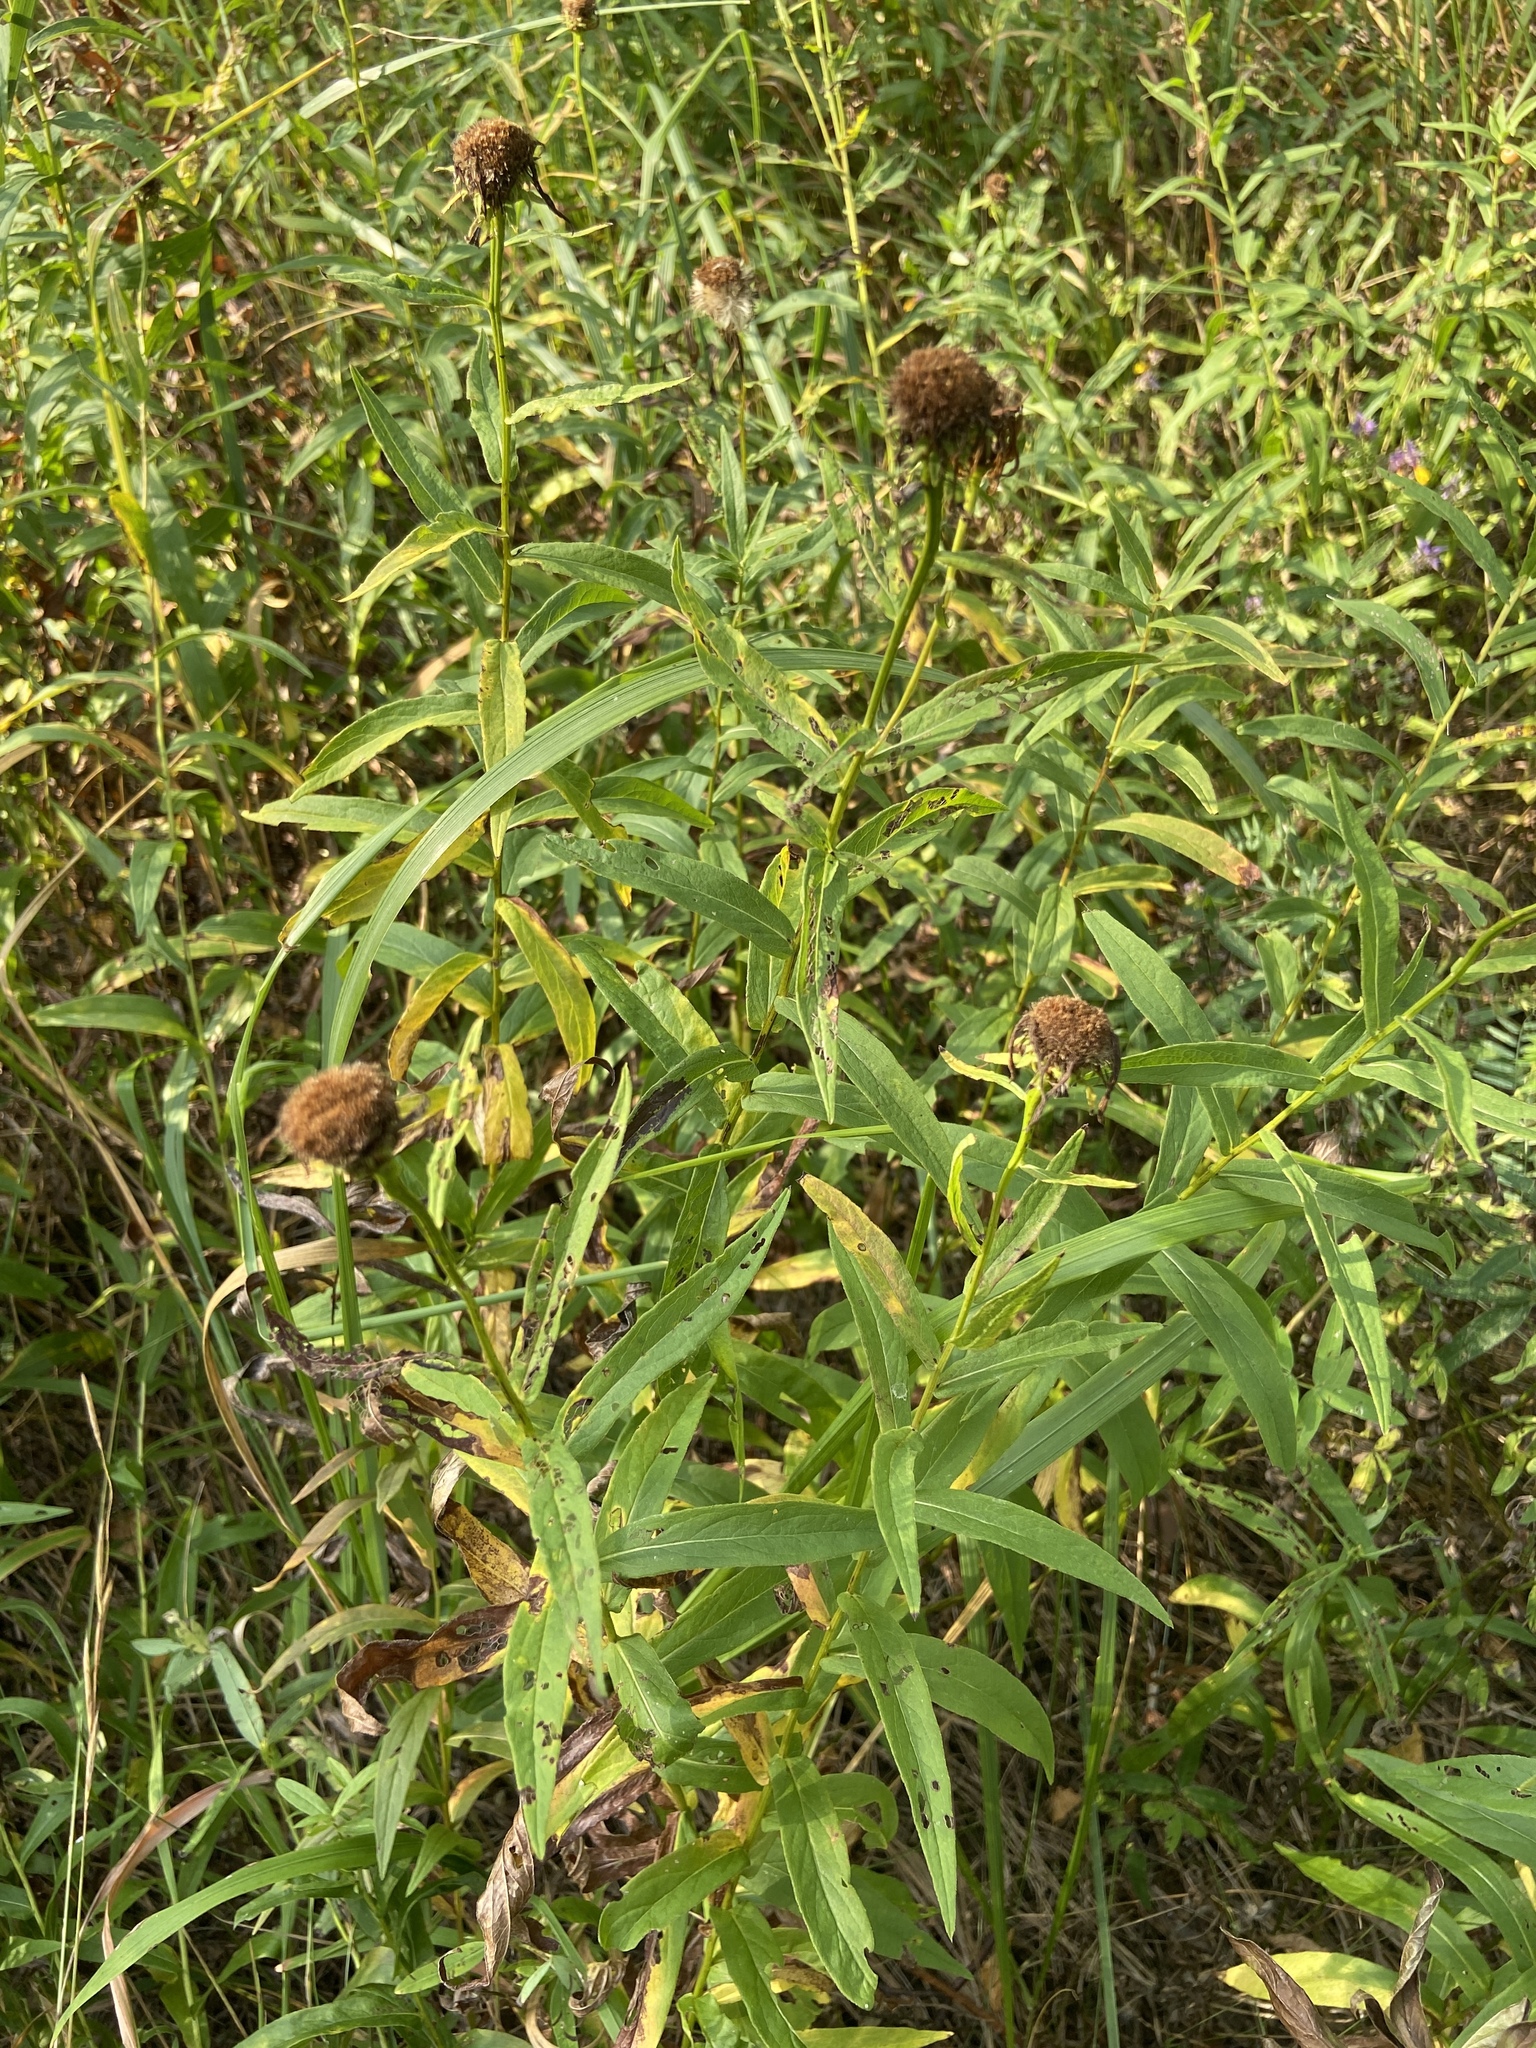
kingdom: Plantae
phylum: Tracheophyta
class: Magnoliopsida
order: Asterales
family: Asteraceae
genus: Pentanema
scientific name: Pentanema salicinum
